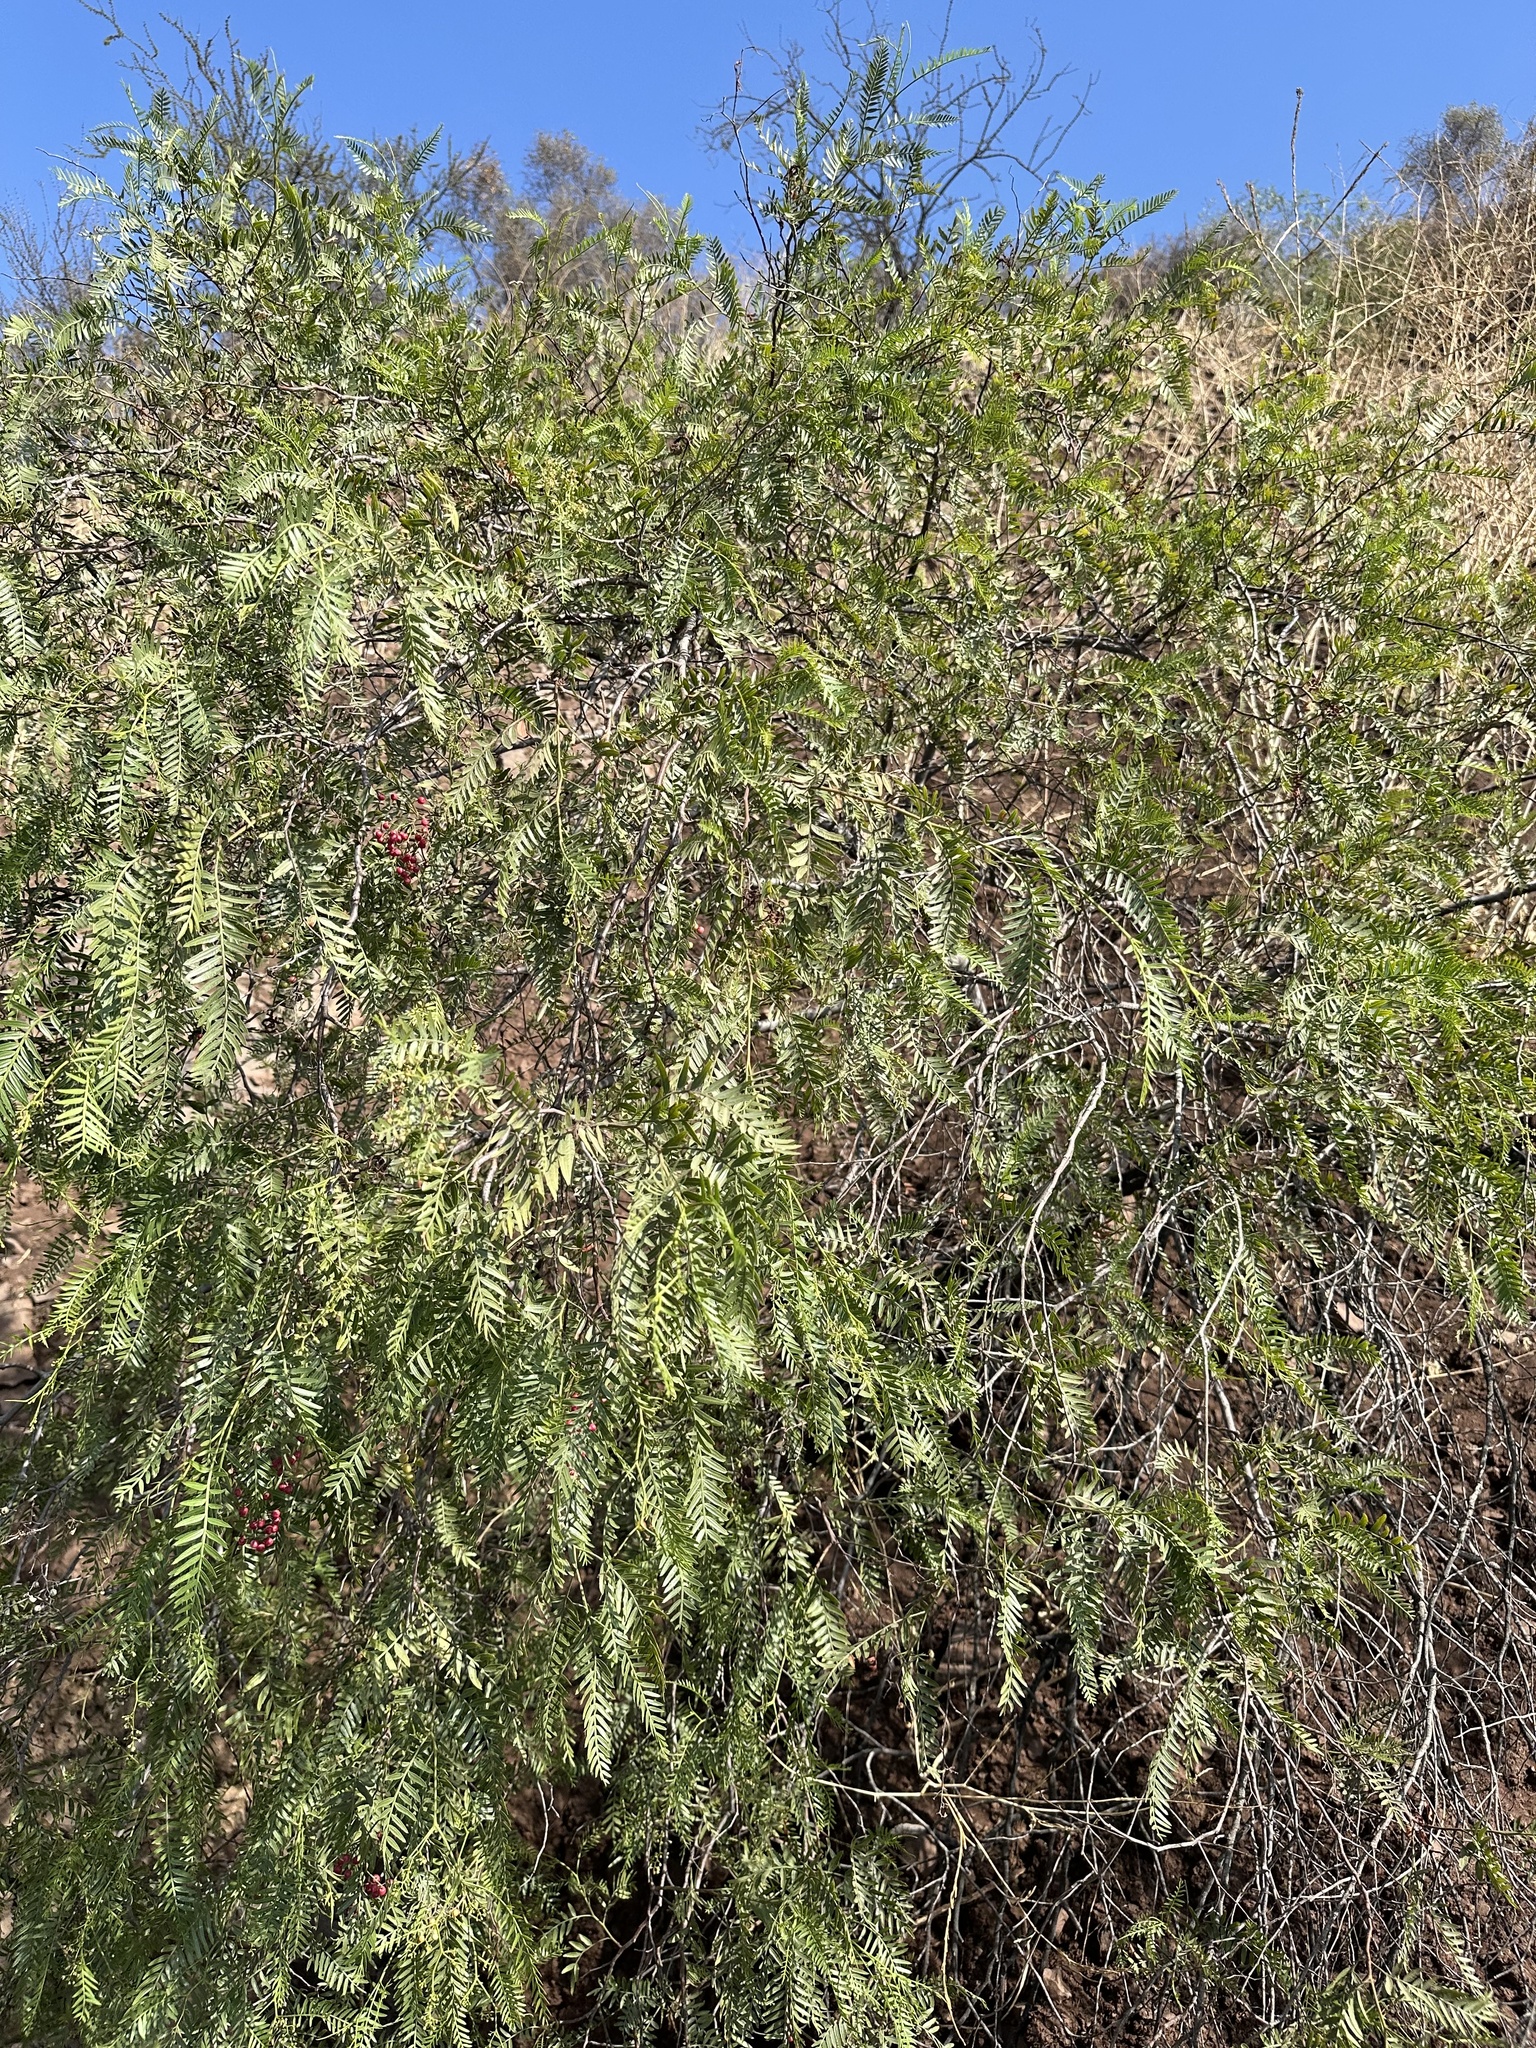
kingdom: Plantae
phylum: Tracheophyta
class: Magnoliopsida
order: Sapindales
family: Anacardiaceae
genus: Schinus
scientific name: Schinus molle
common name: Peruvian peppertree
